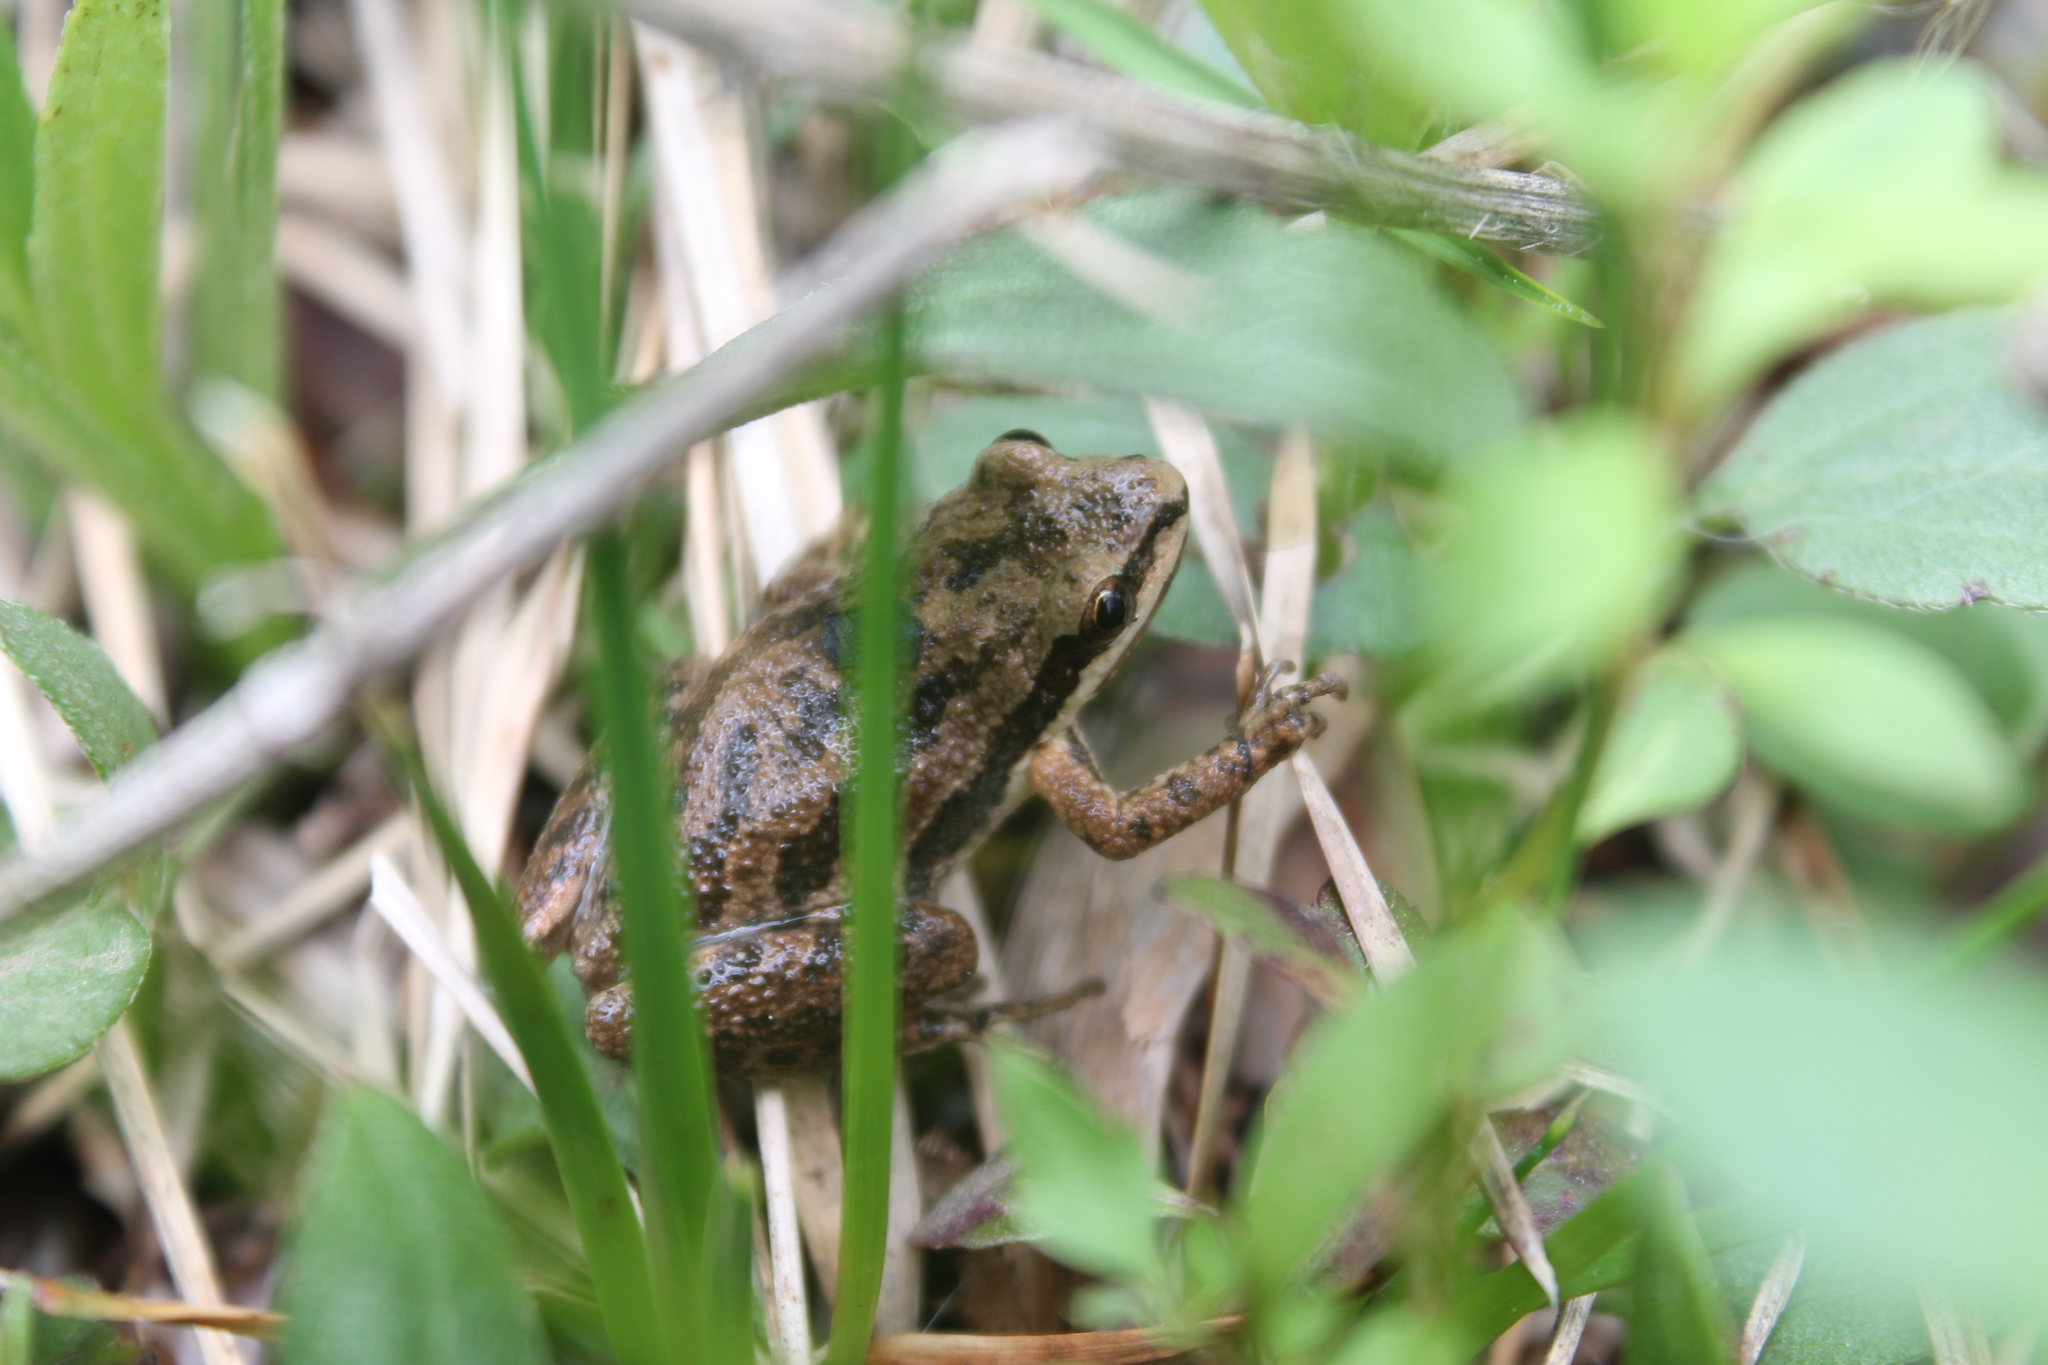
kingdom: Animalia
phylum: Chordata
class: Amphibia
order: Anura
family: Hylidae
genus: Pseudacris
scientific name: Pseudacris feriarum
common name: Upland chorus frog
